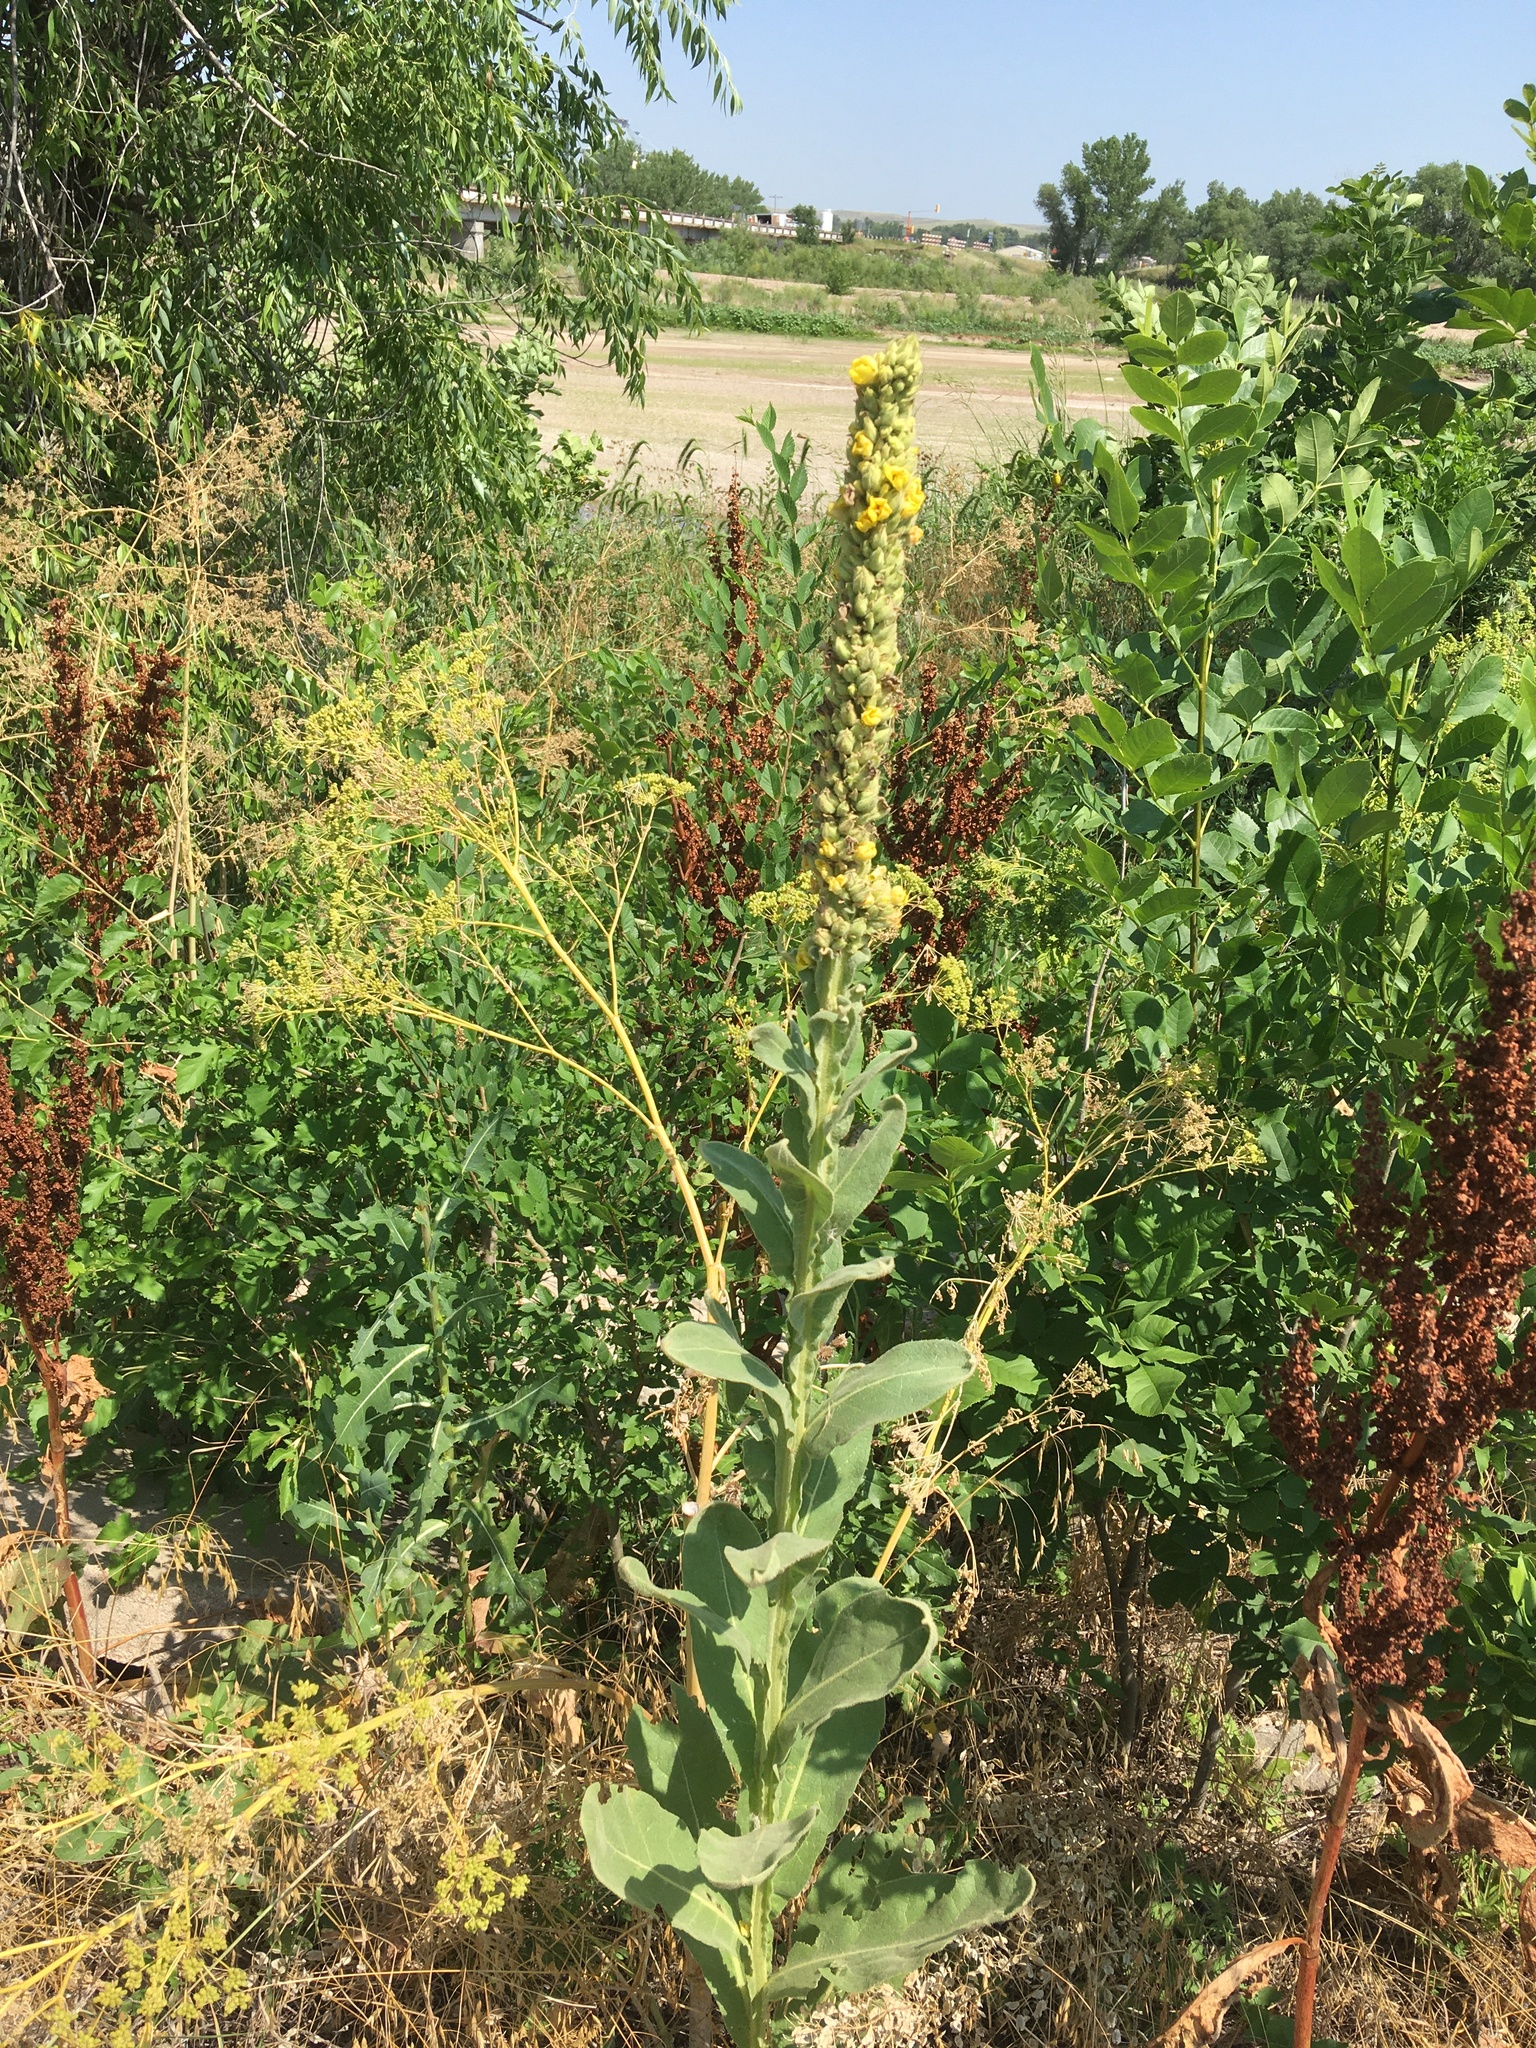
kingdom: Plantae
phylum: Tracheophyta
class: Magnoliopsida
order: Lamiales
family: Scrophulariaceae
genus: Verbascum
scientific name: Verbascum thapsus
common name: Common mullein
